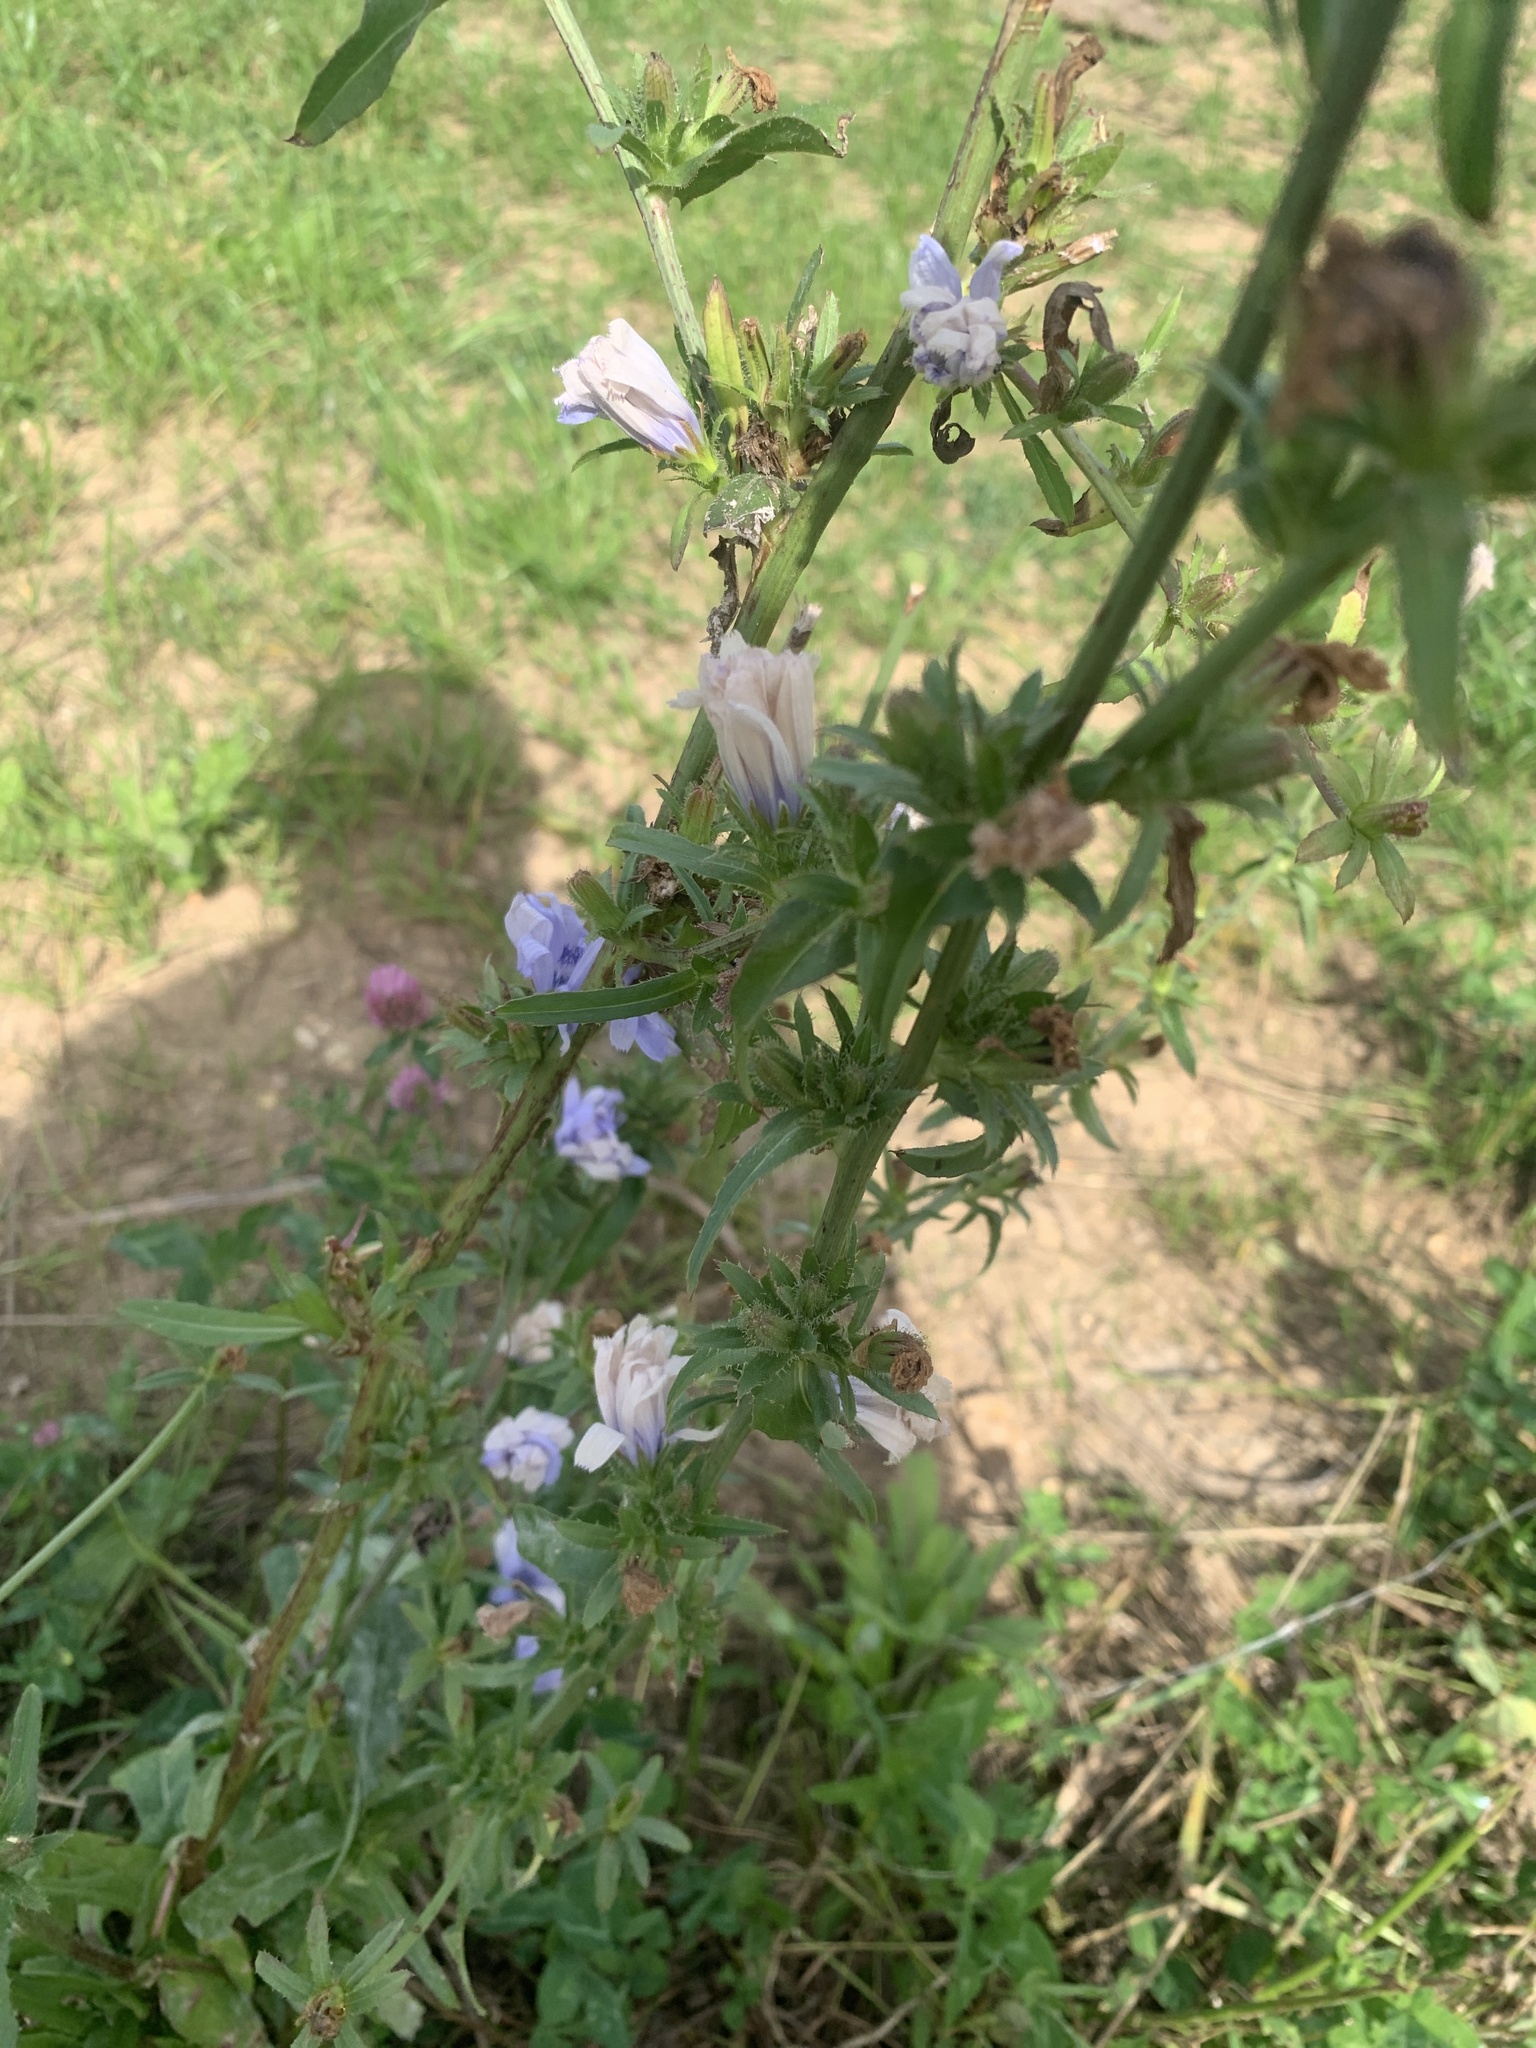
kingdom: Plantae
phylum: Tracheophyta
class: Magnoliopsida
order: Asterales
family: Asteraceae
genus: Cichorium
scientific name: Cichorium intybus
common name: Chicory
